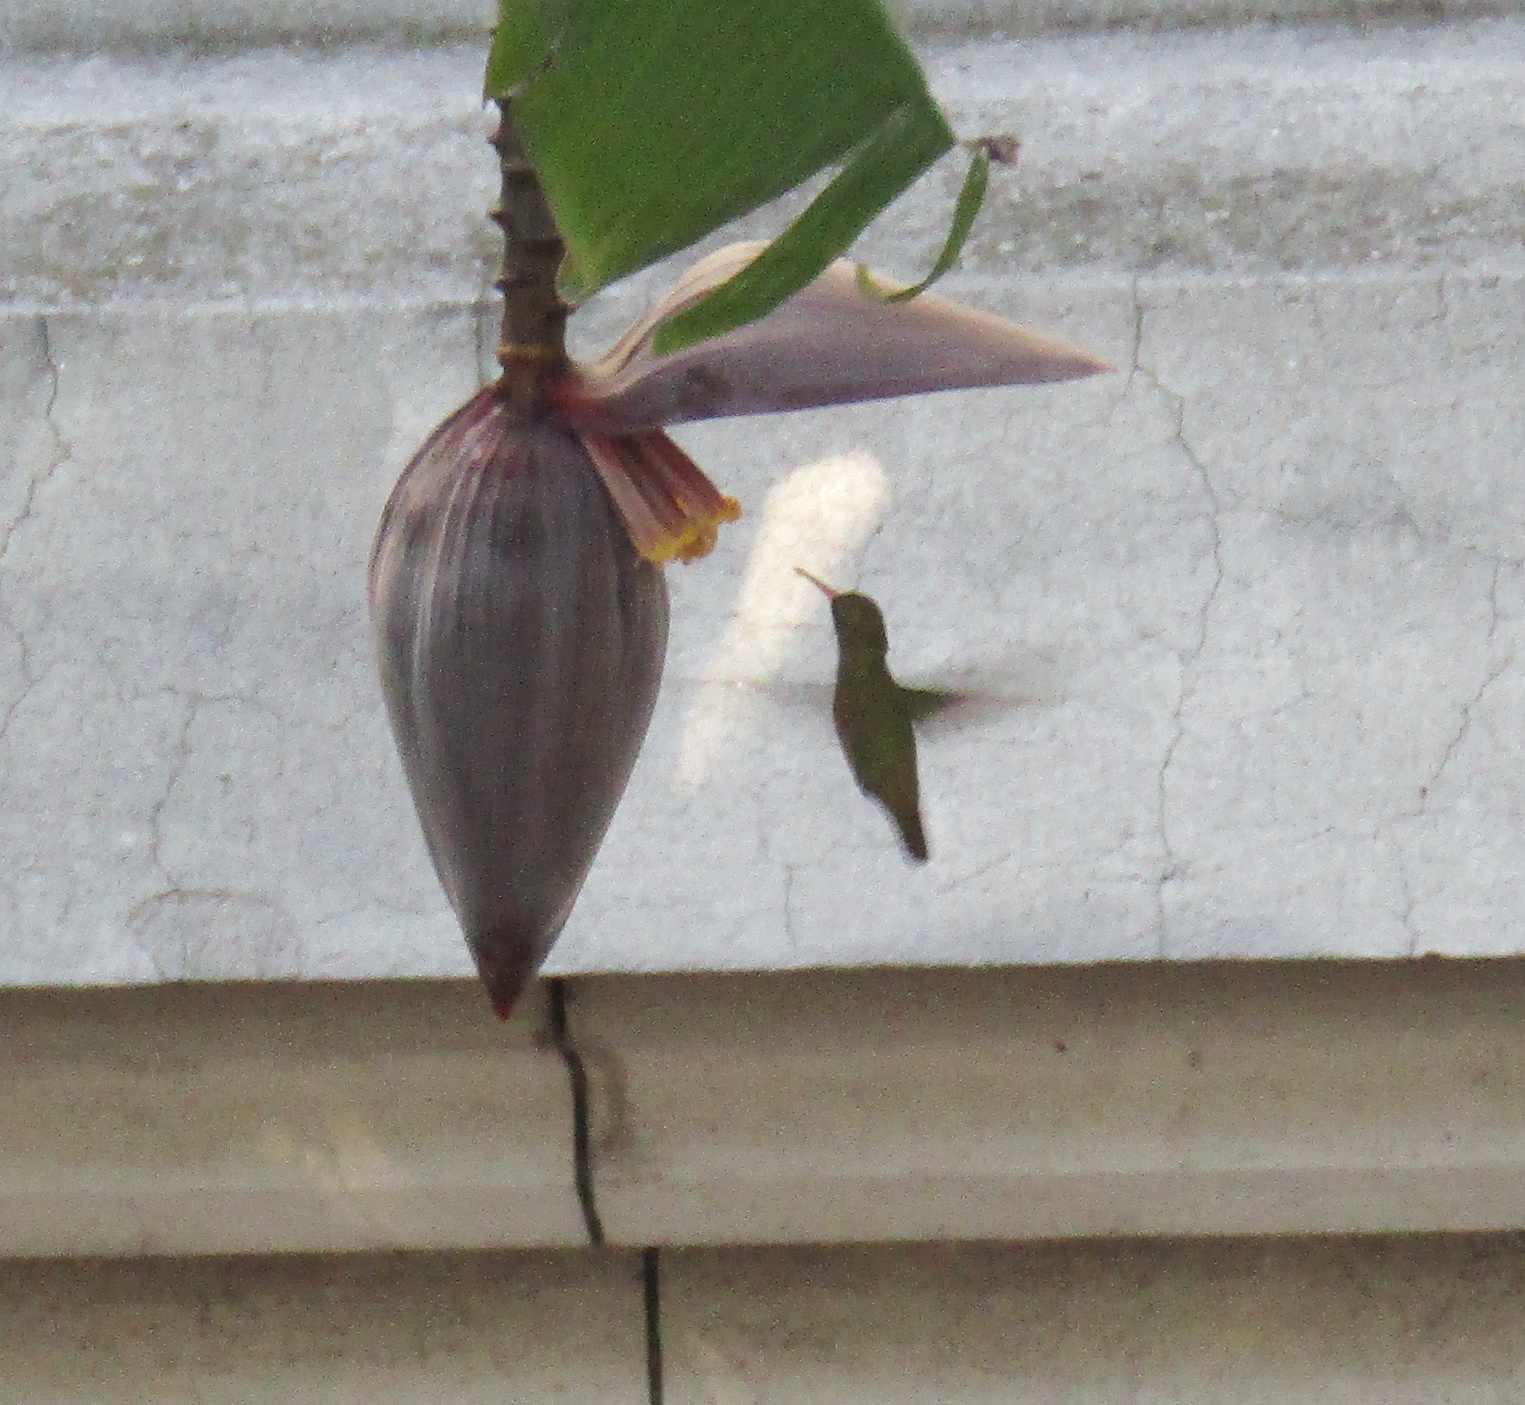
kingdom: Animalia
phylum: Chordata
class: Aves
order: Apodiformes
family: Trochilidae
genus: Hylocharis
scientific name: Hylocharis chrysura
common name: Gilded sapphire
